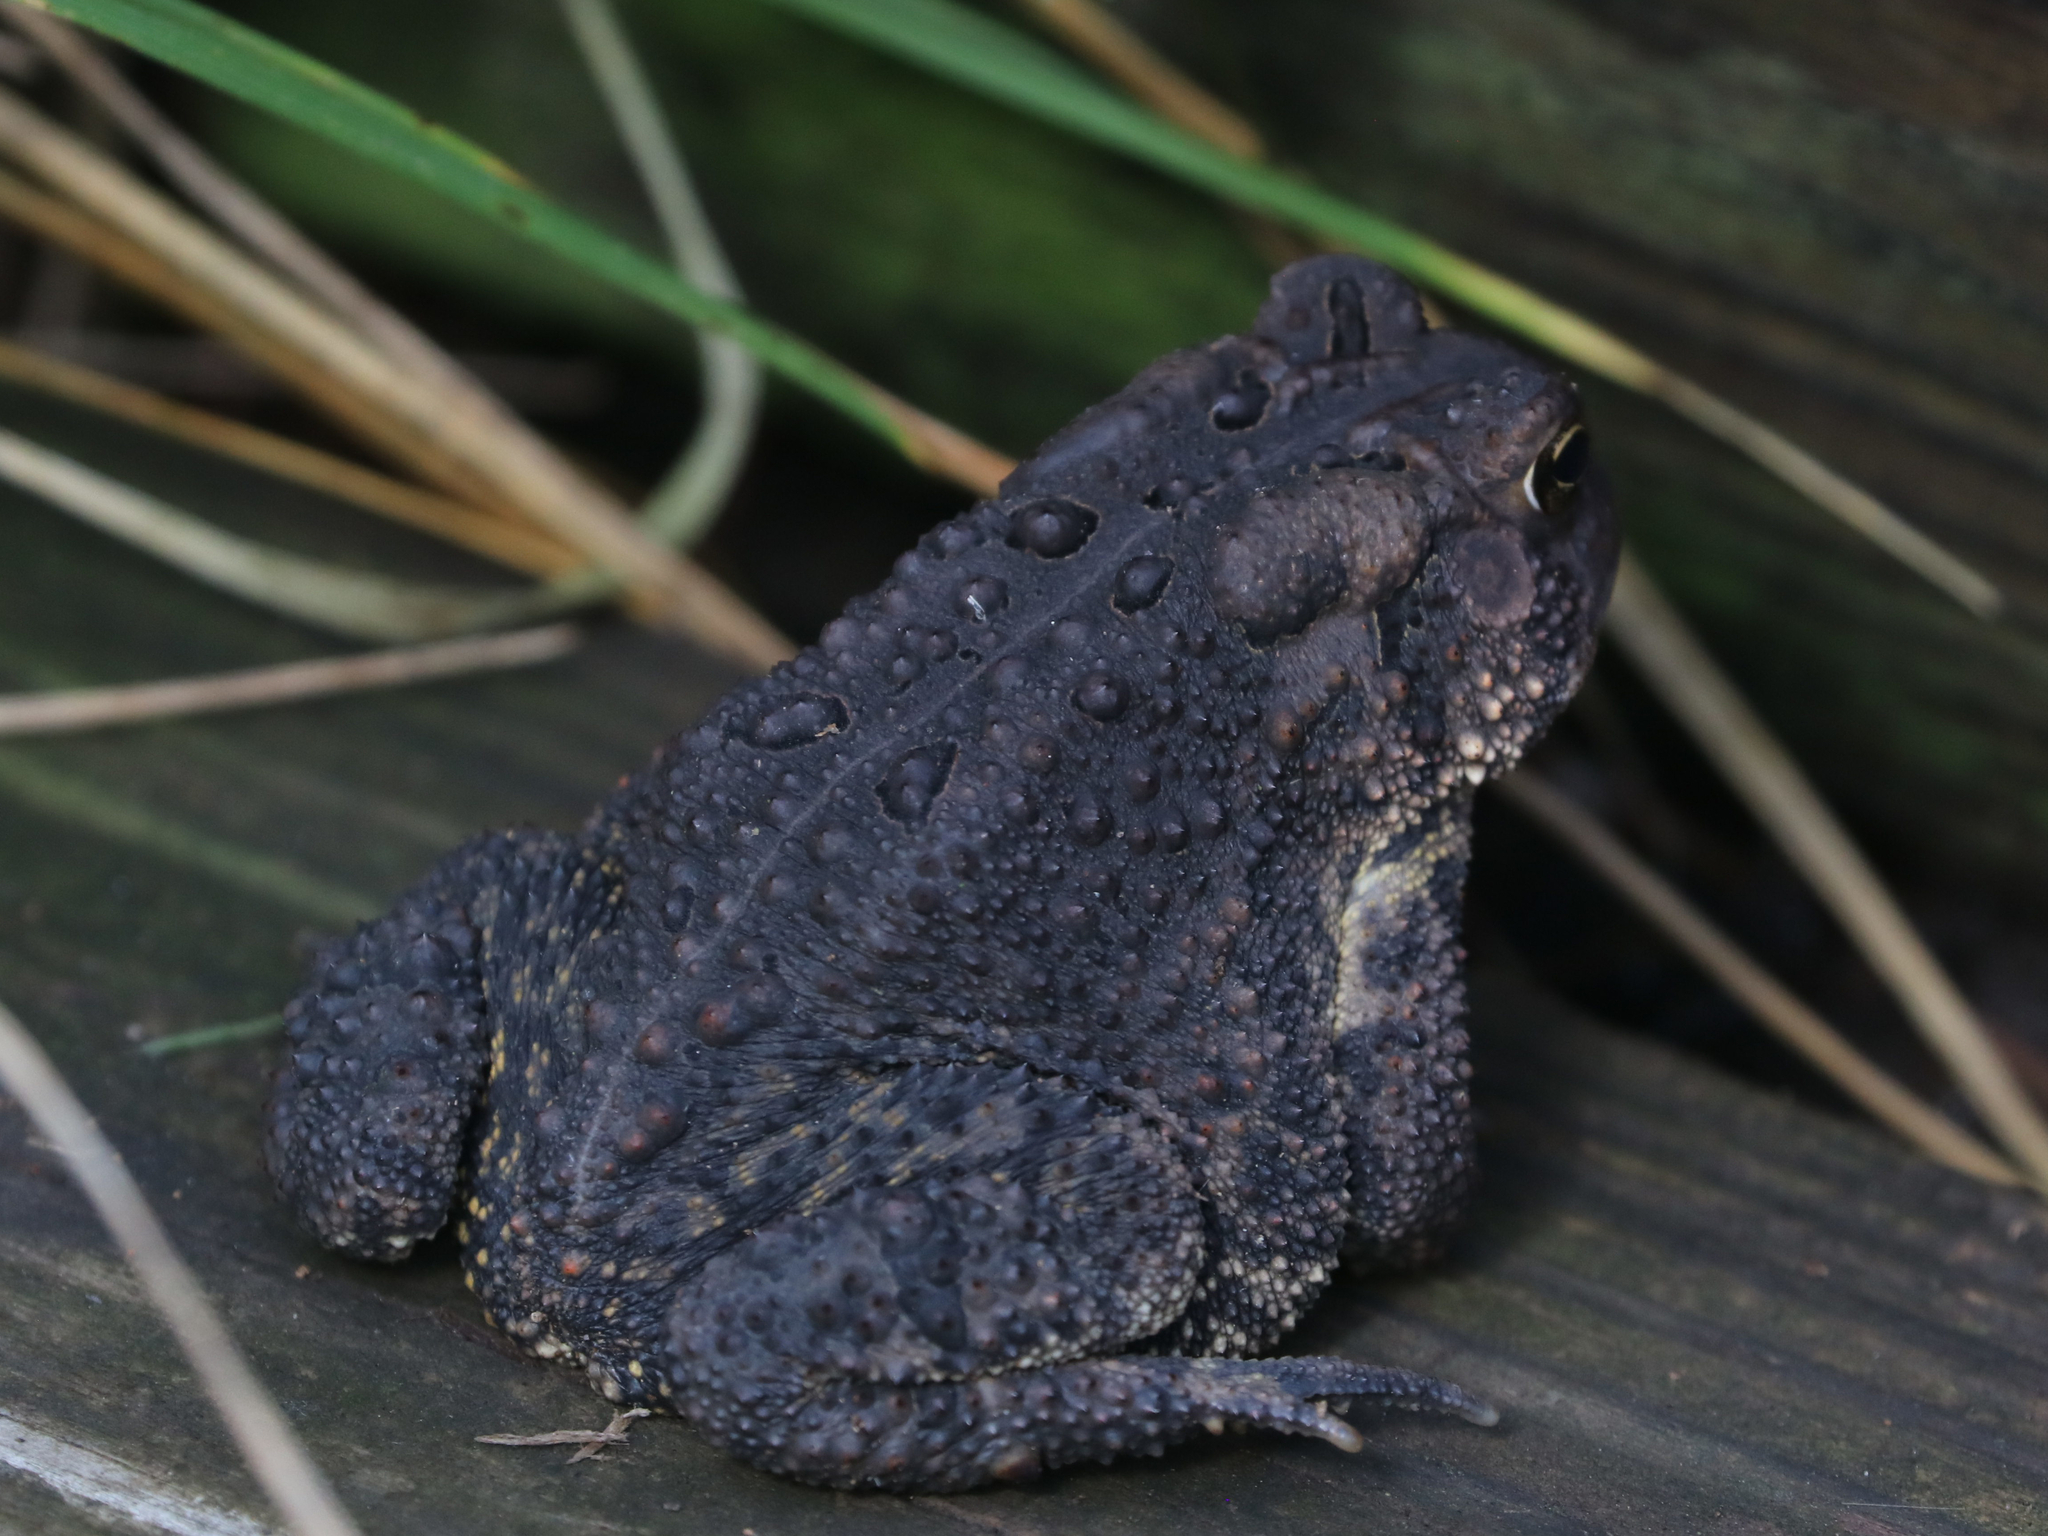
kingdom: Animalia
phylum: Chordata
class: Amphibia
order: Anura
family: Bufonidae
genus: Anaxyrus
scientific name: Anaxyrus americanus
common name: American toad
